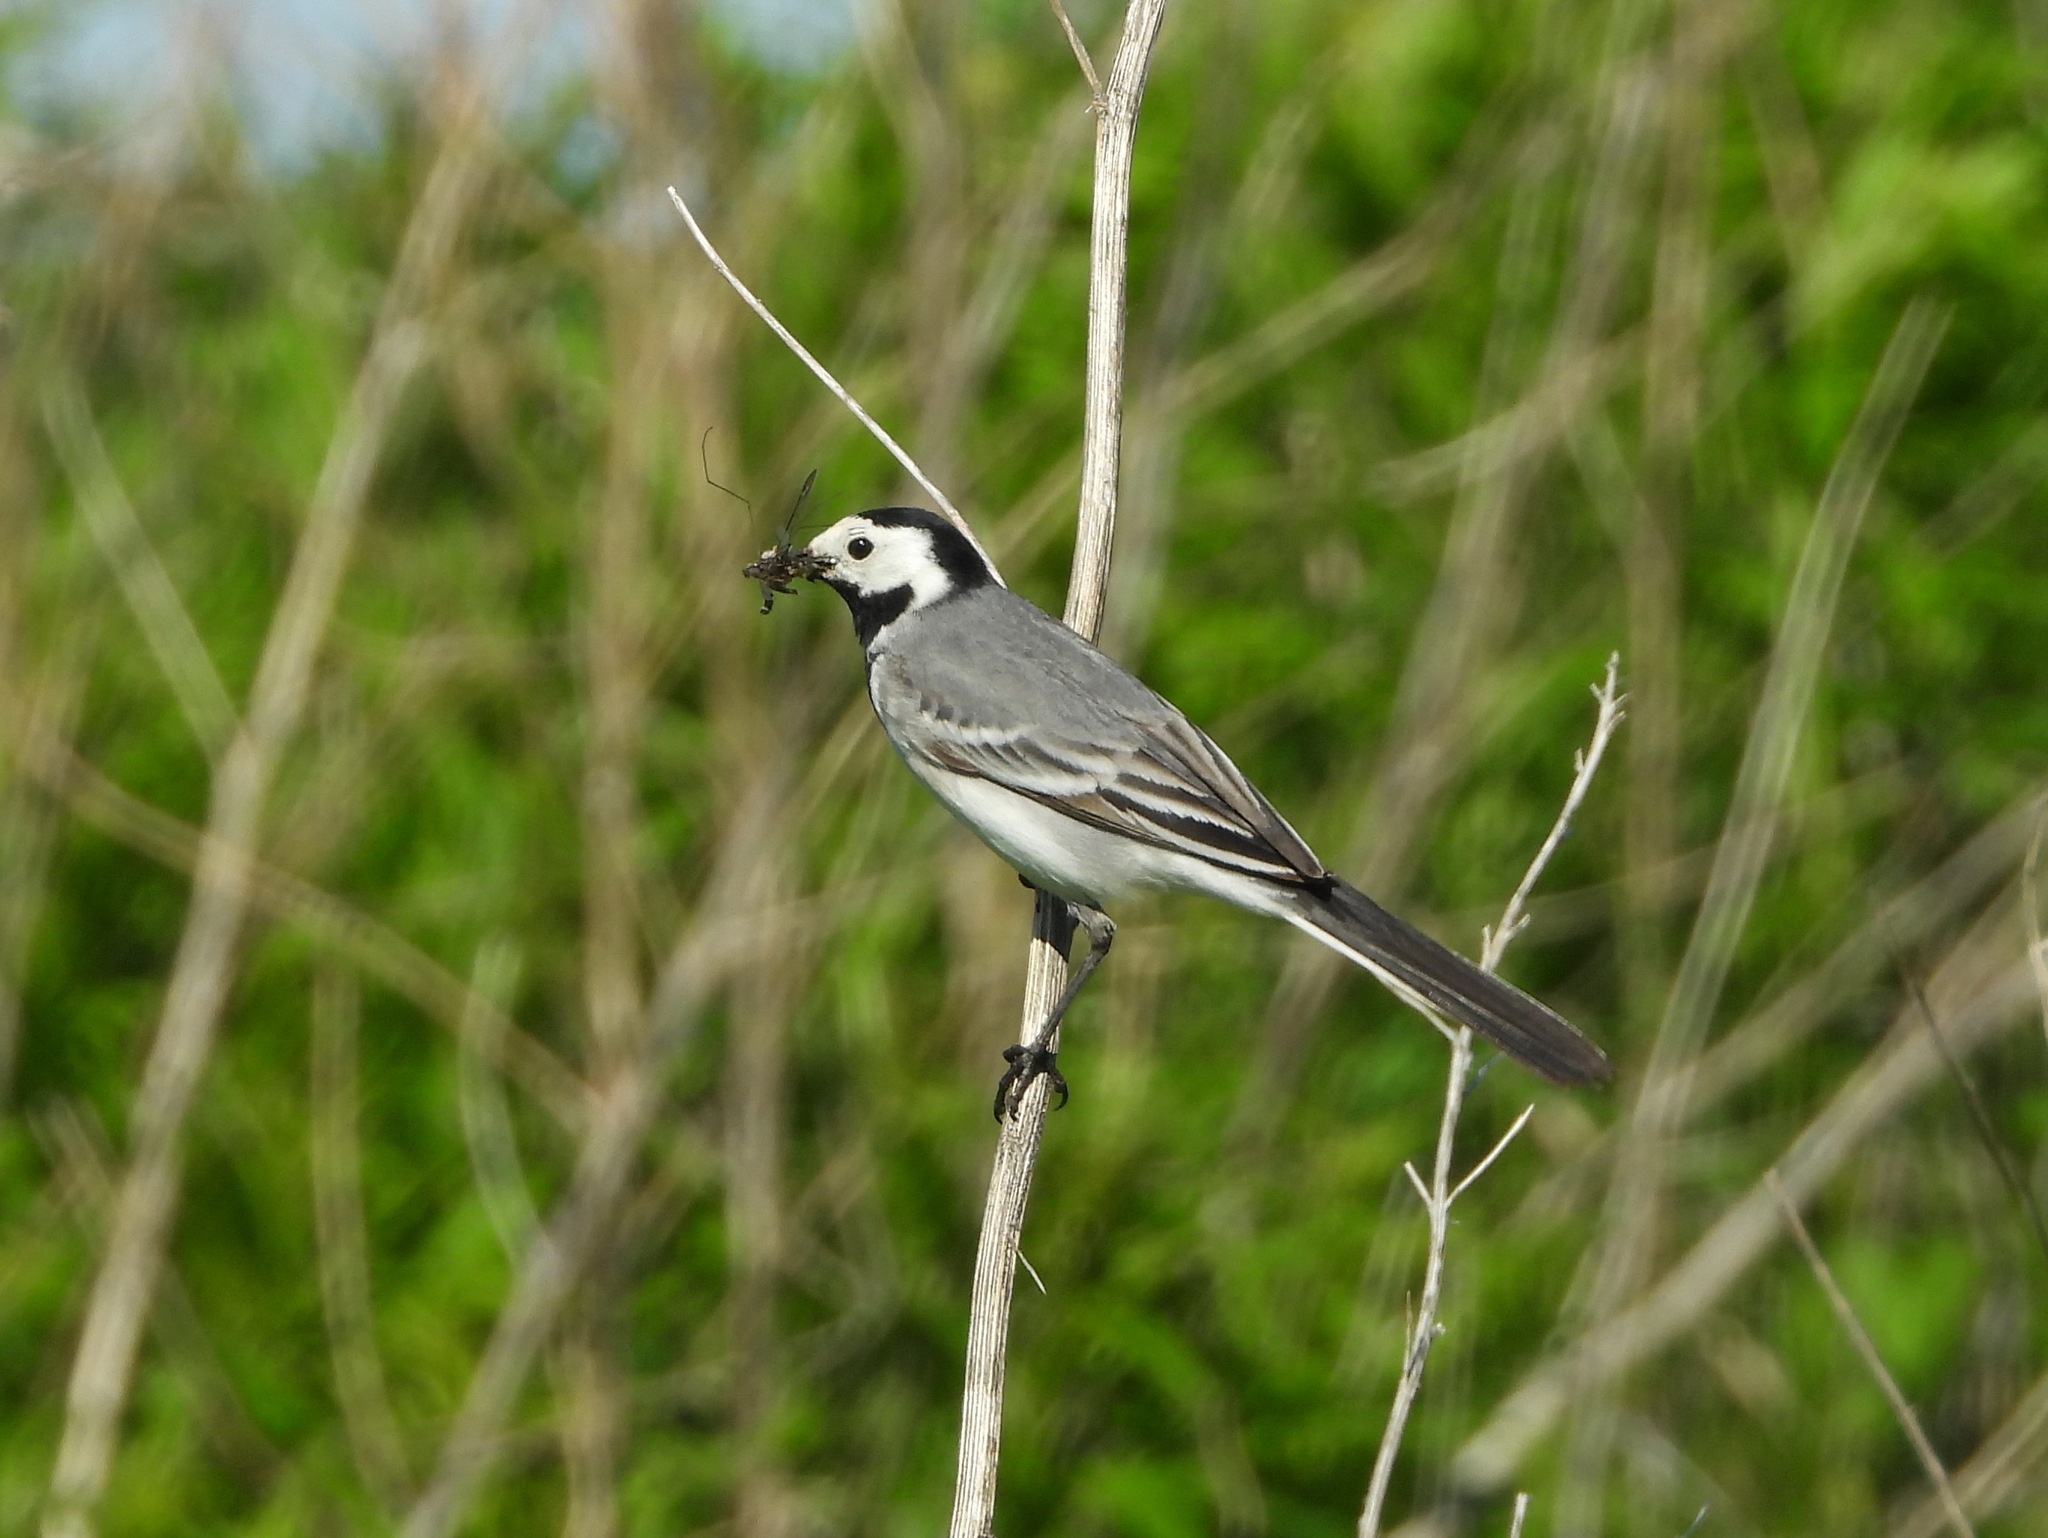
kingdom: Animalia
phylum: Chordata
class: Aves
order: Passeriformes
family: Motacillidae
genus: Motacilla
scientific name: Motacilla alba
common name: White wagtail
